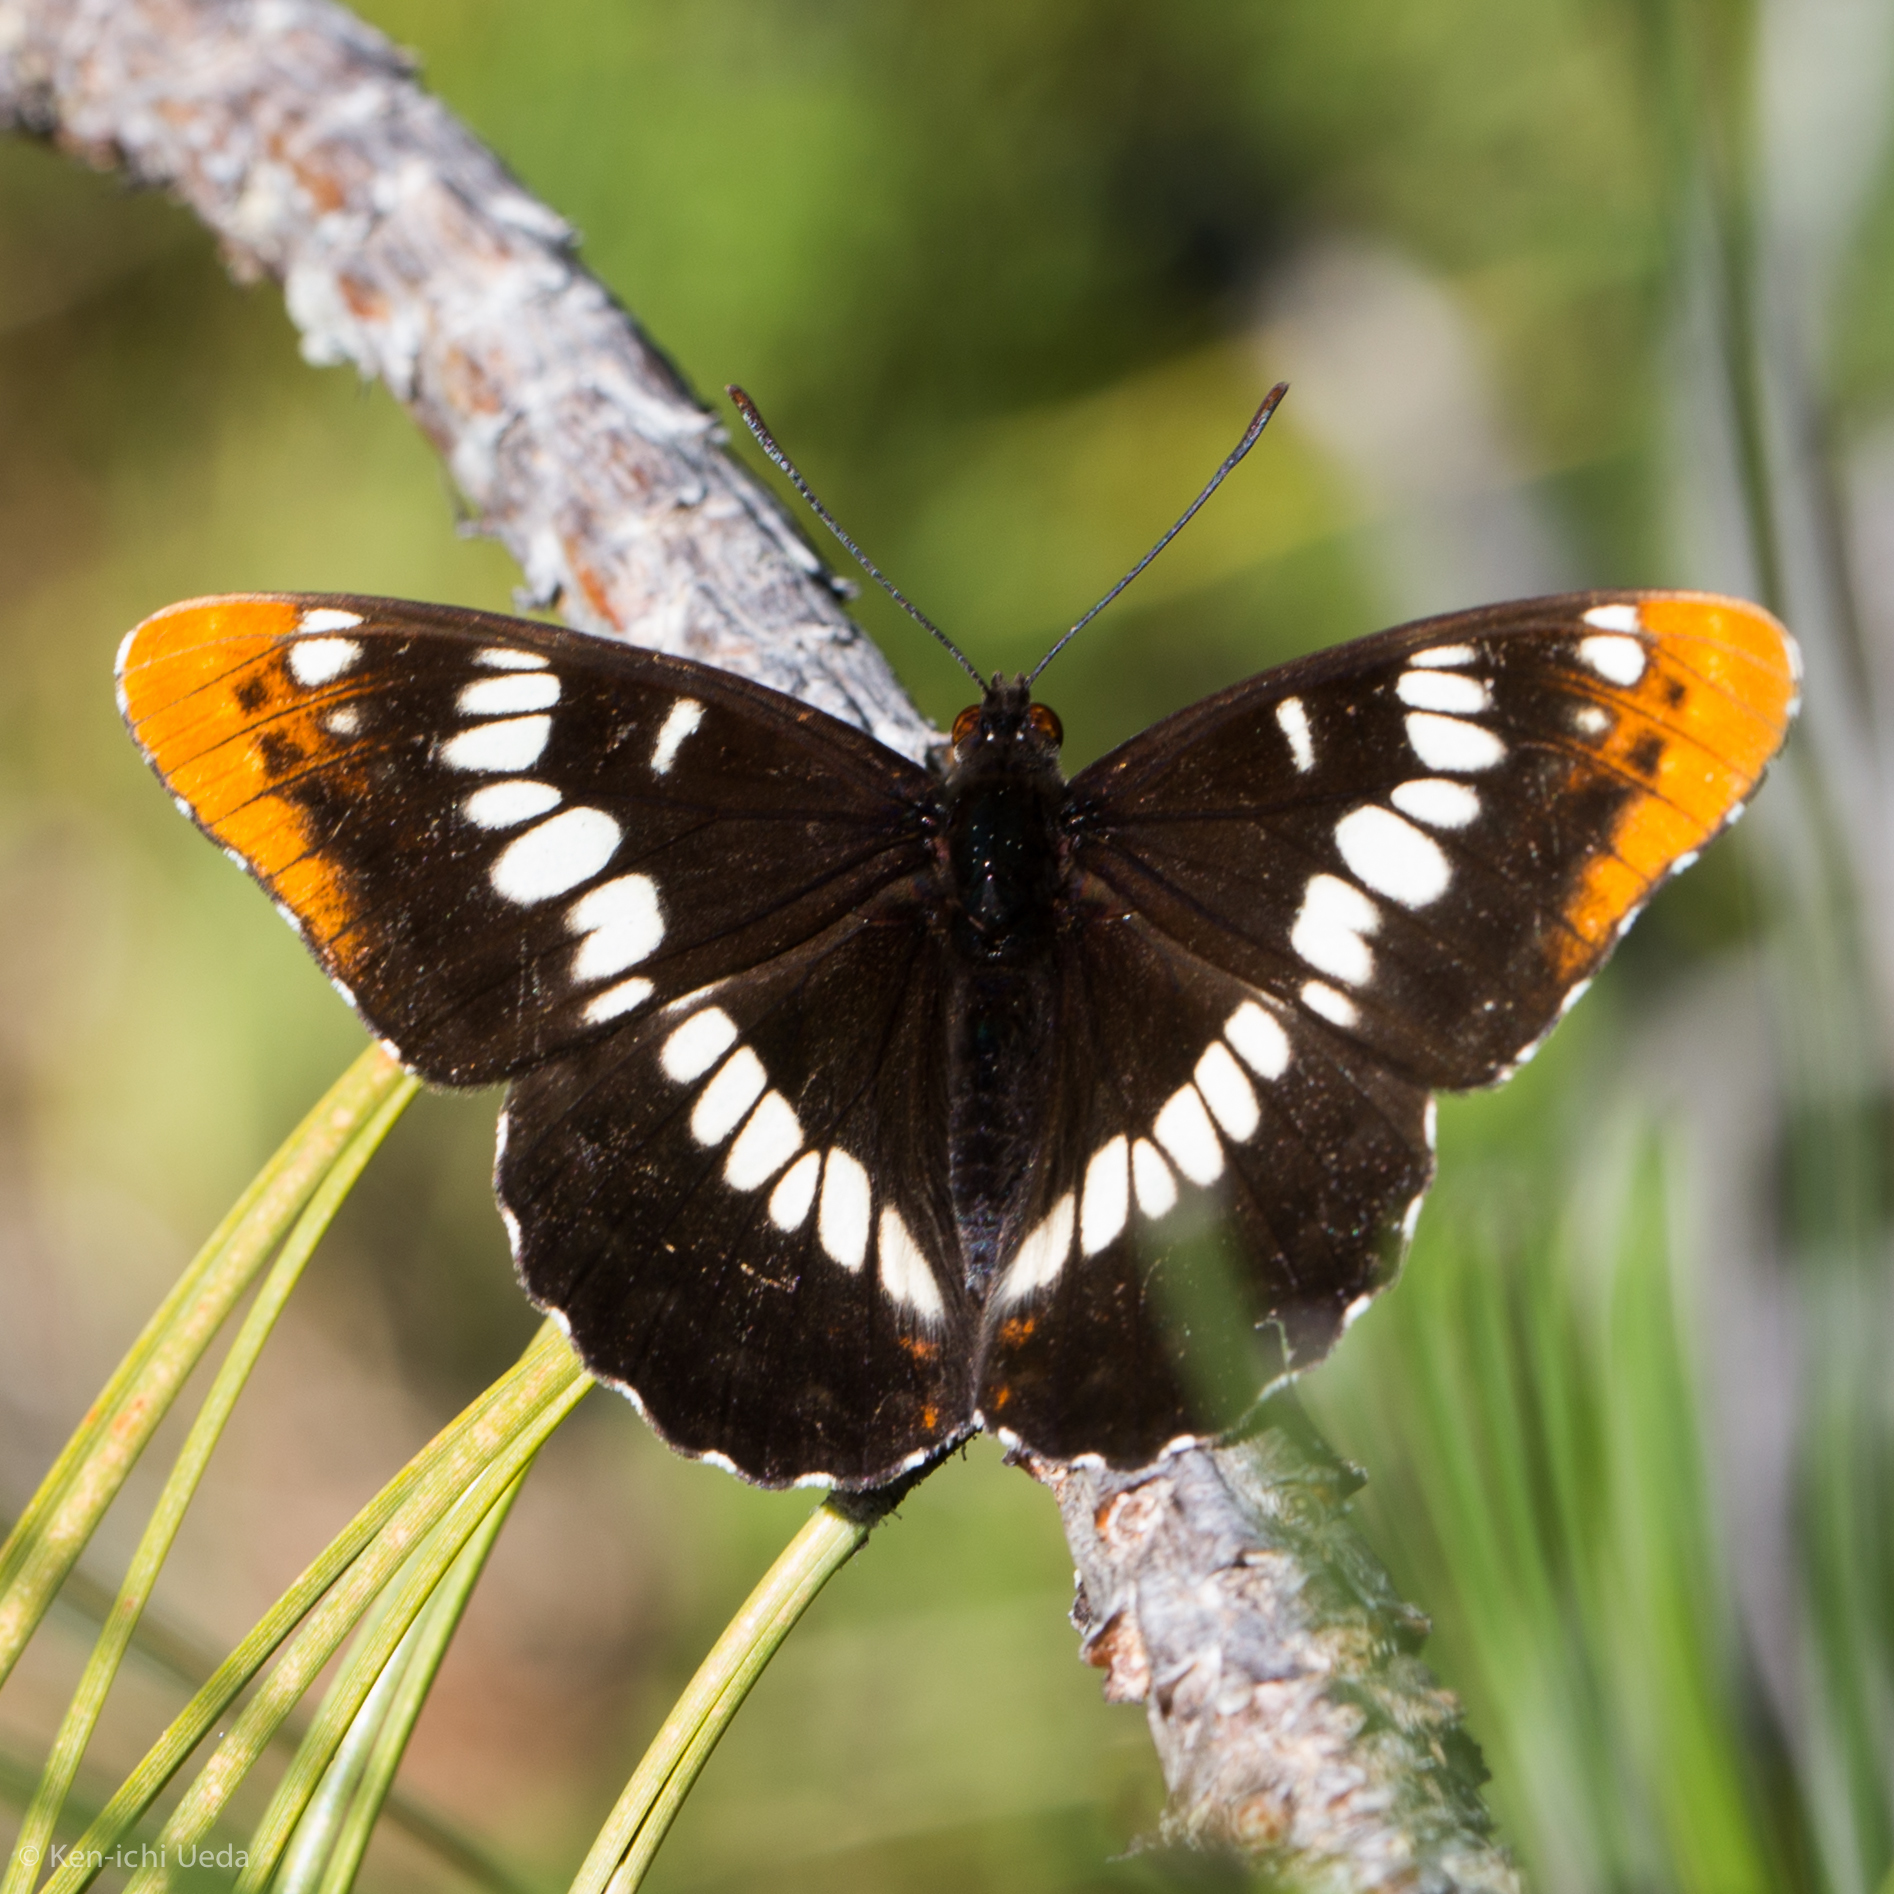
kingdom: Animalia
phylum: Arthropoda
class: Insecta
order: Lepidoptera
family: Nymphalidae
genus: Limenitis
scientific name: Limenitis lorquini
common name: Lorquin's admiral
